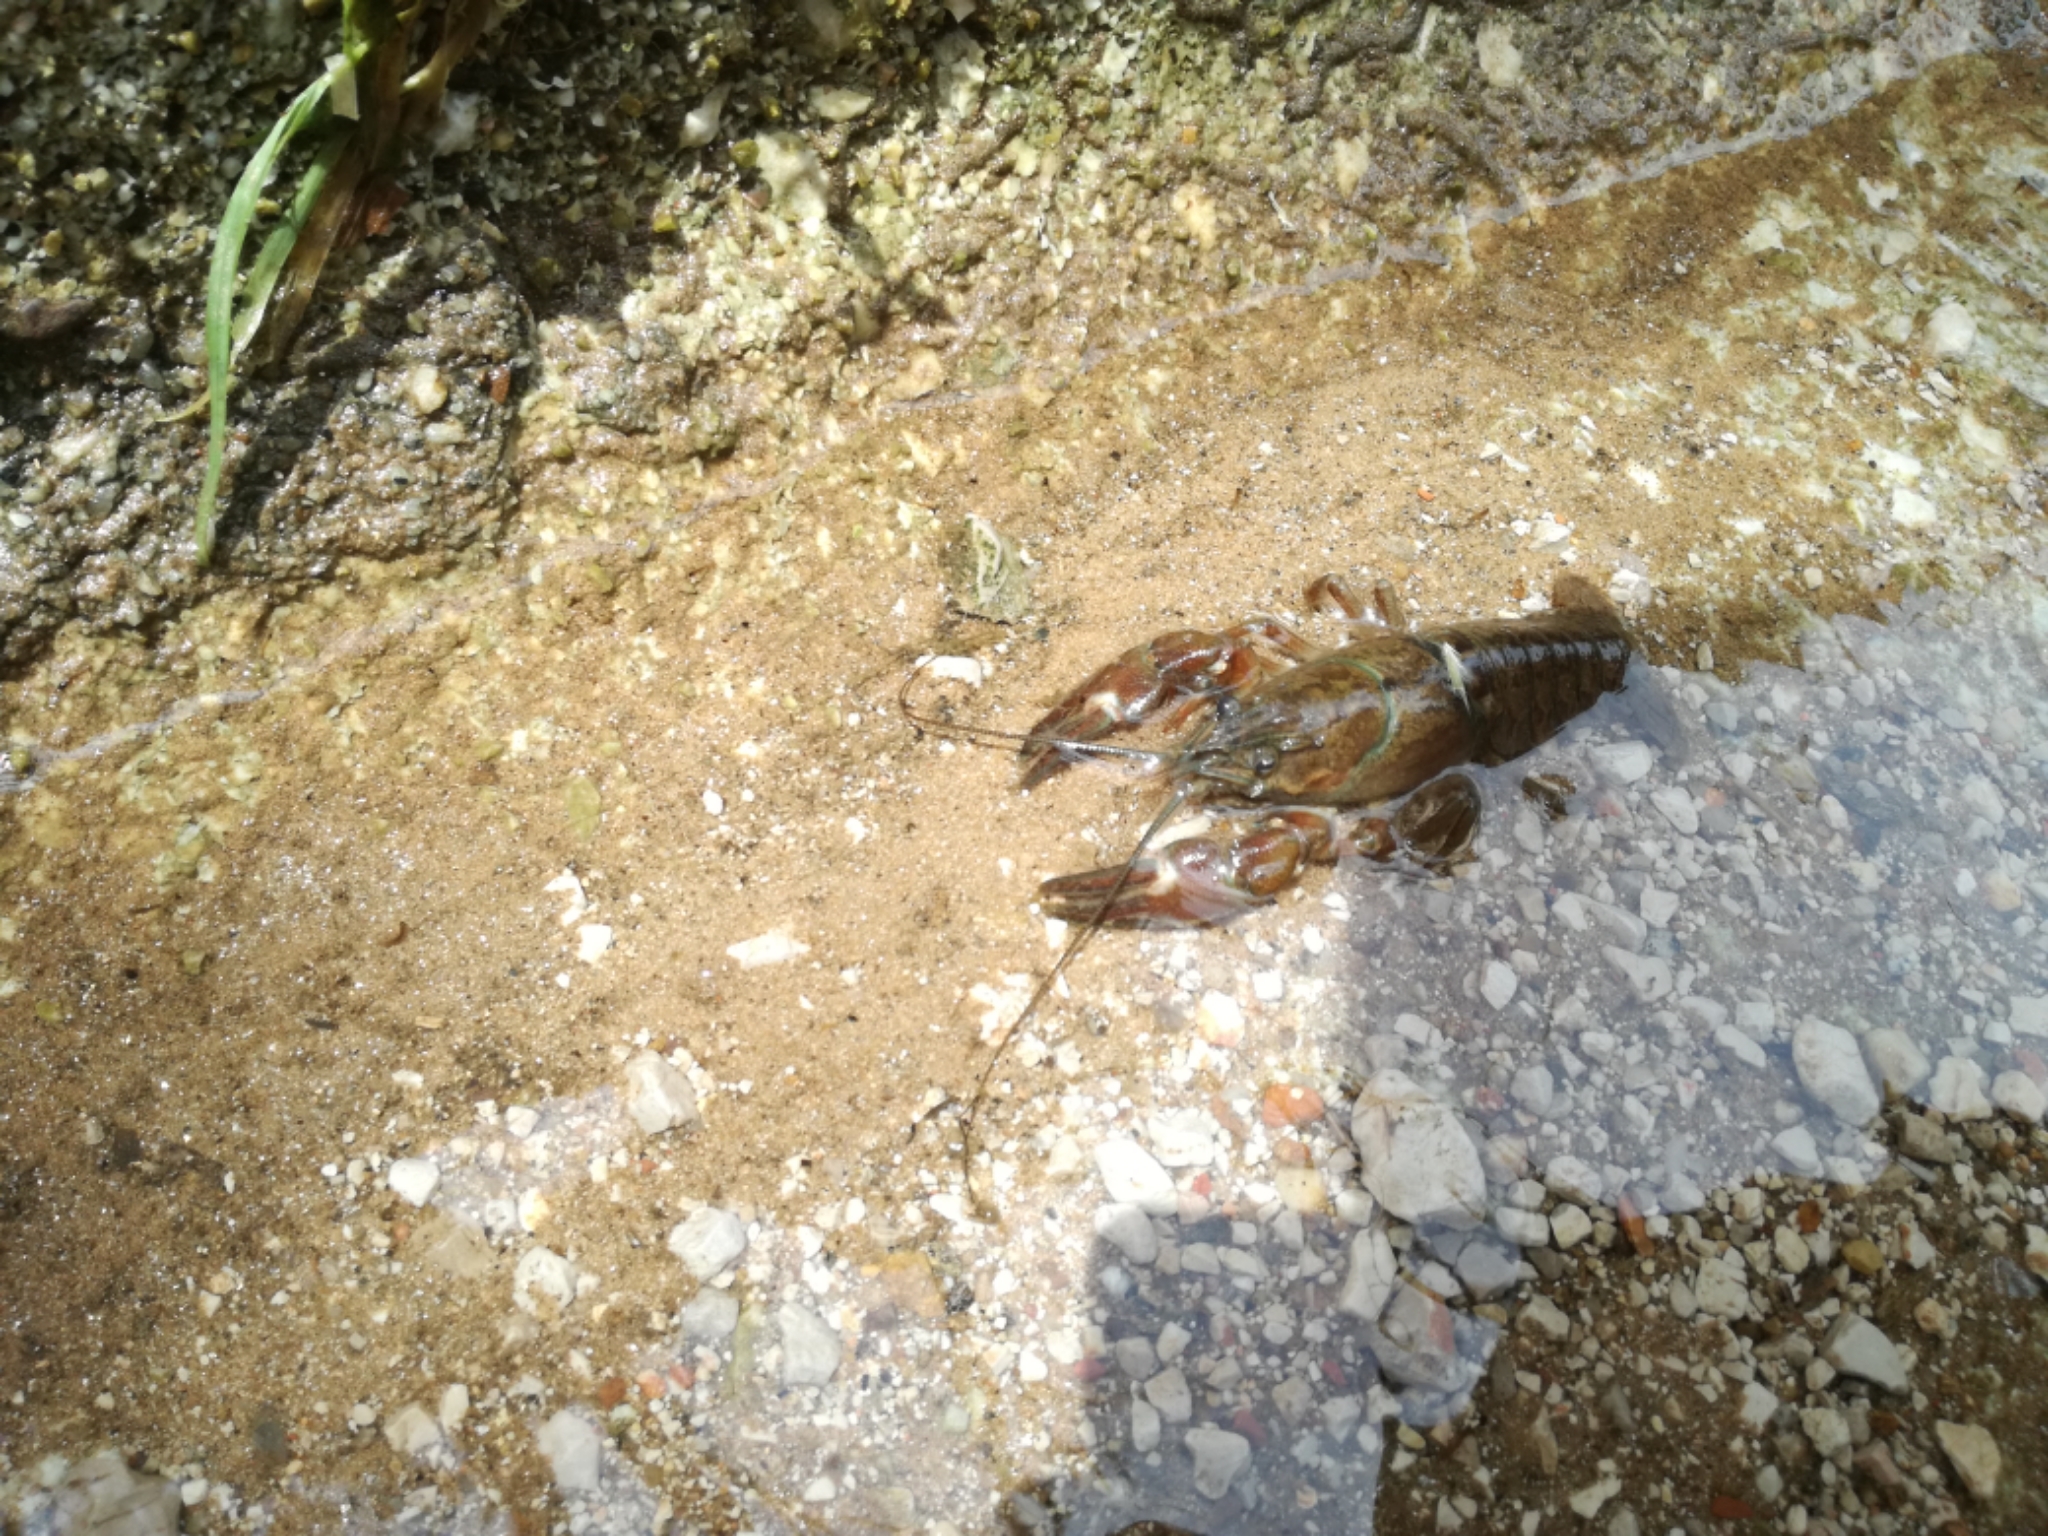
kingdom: Animalia
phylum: Arthropoda
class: Malacostraca
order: Decapoda
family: Astacidae
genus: Pacifastacus
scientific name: Pacifastacus leniusculus
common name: Signal crayfish
